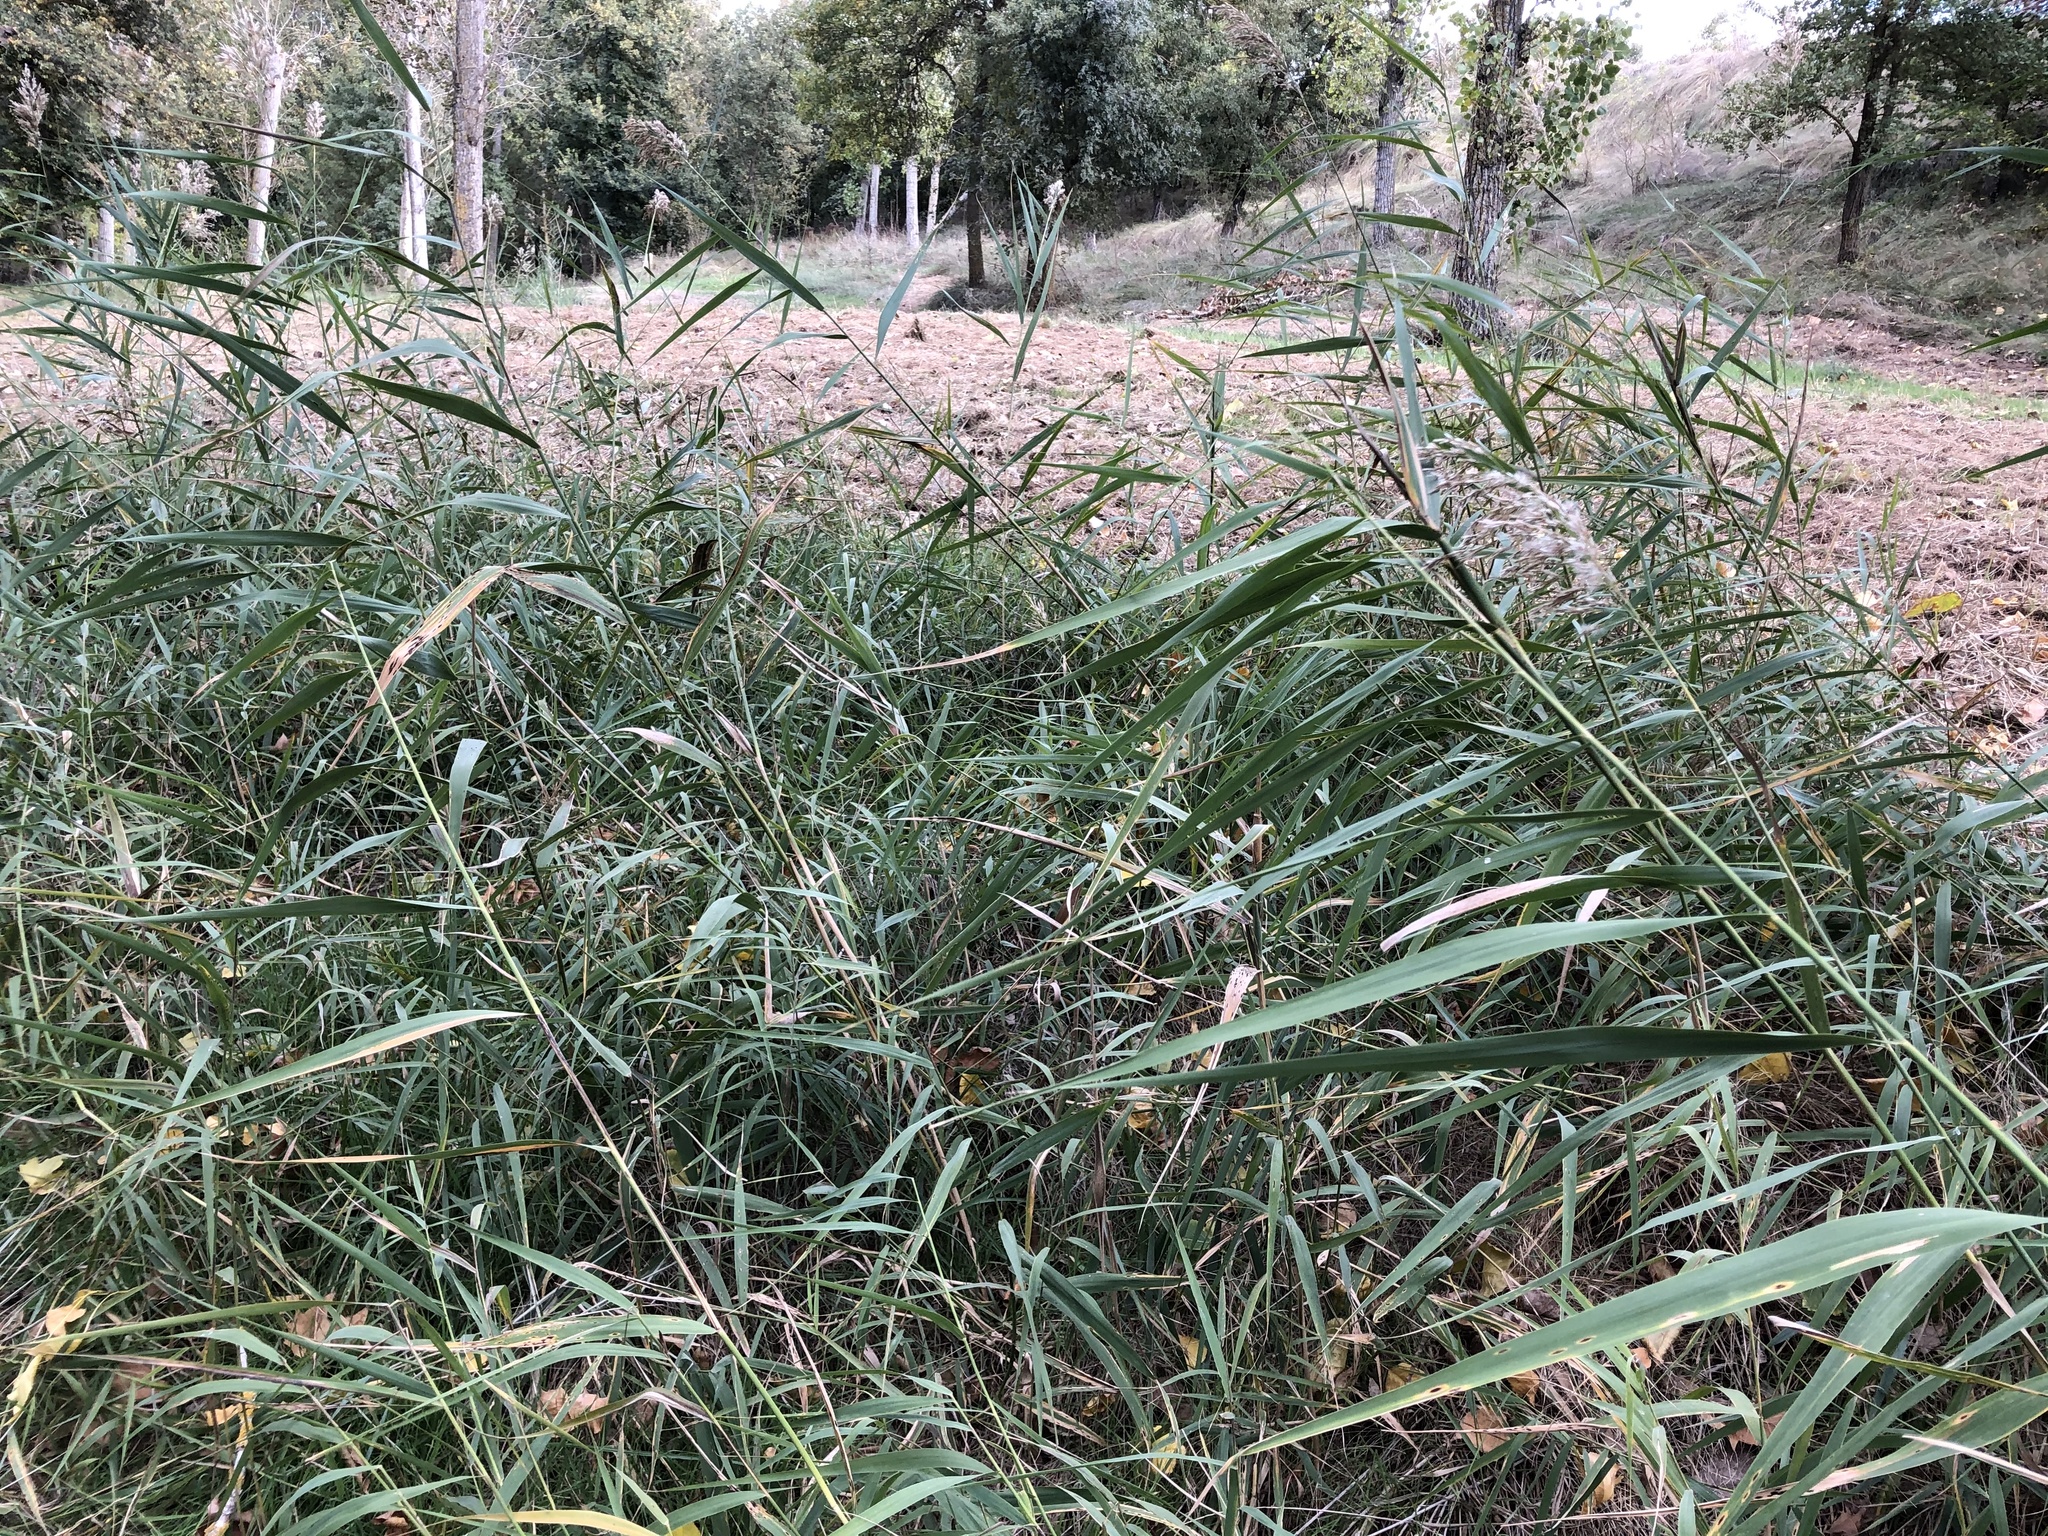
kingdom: Plantae
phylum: Tracheophyta
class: Liliopsida
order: Poales
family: Poaceae
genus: Phragmites
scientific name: Phragmites australis
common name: Common reed
